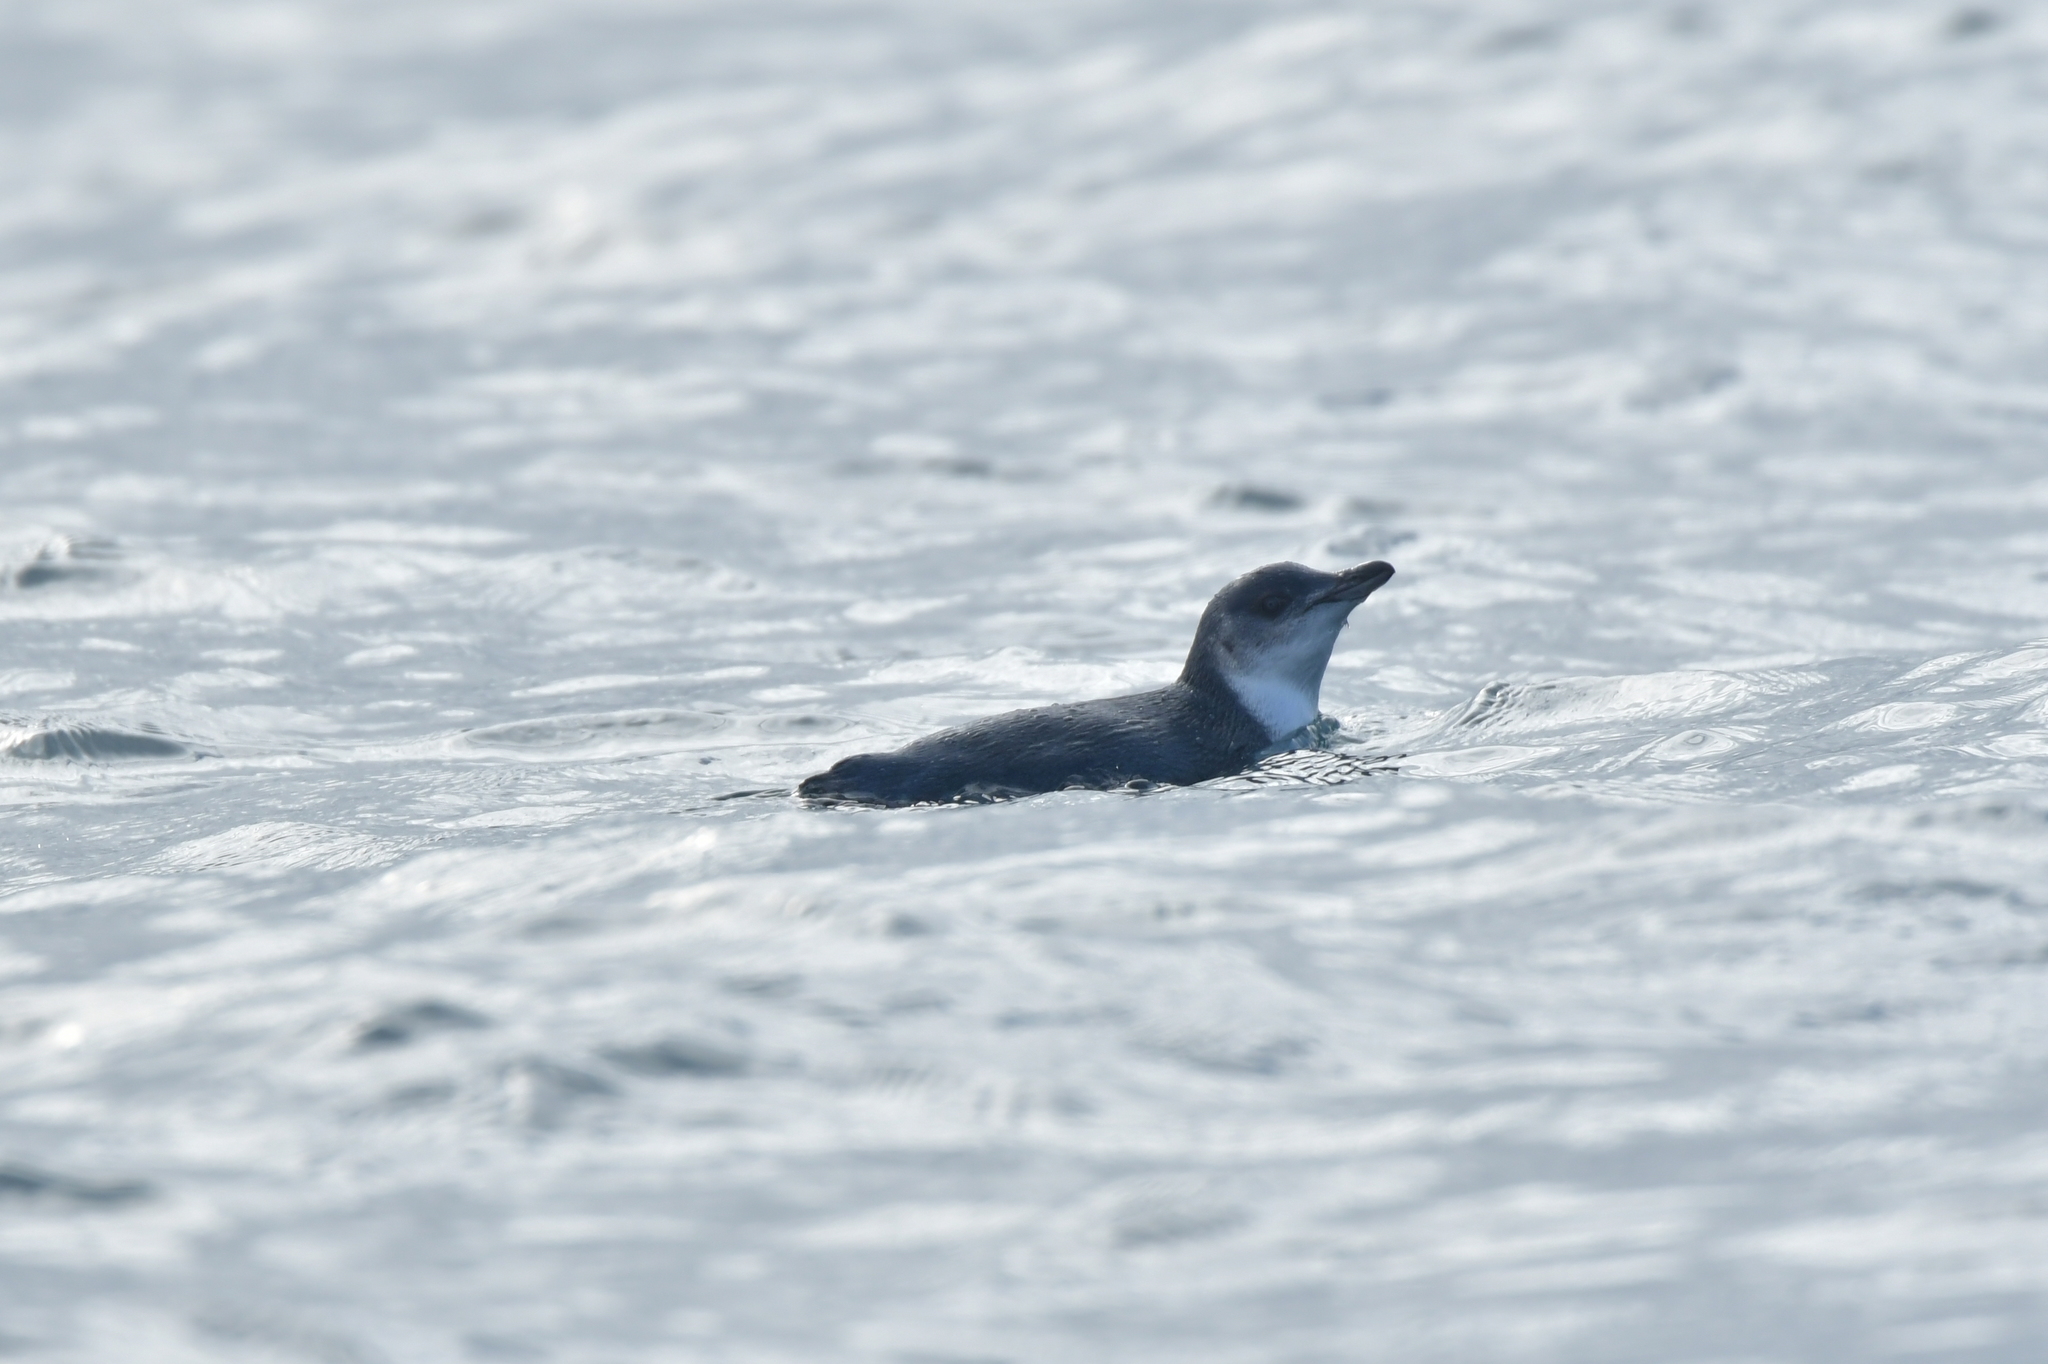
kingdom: Animalia
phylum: Chordata
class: Aves
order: Sphenisciformes
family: Spheniscidae
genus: Eudyptula
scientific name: Eudyptula minor
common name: Little penguin
